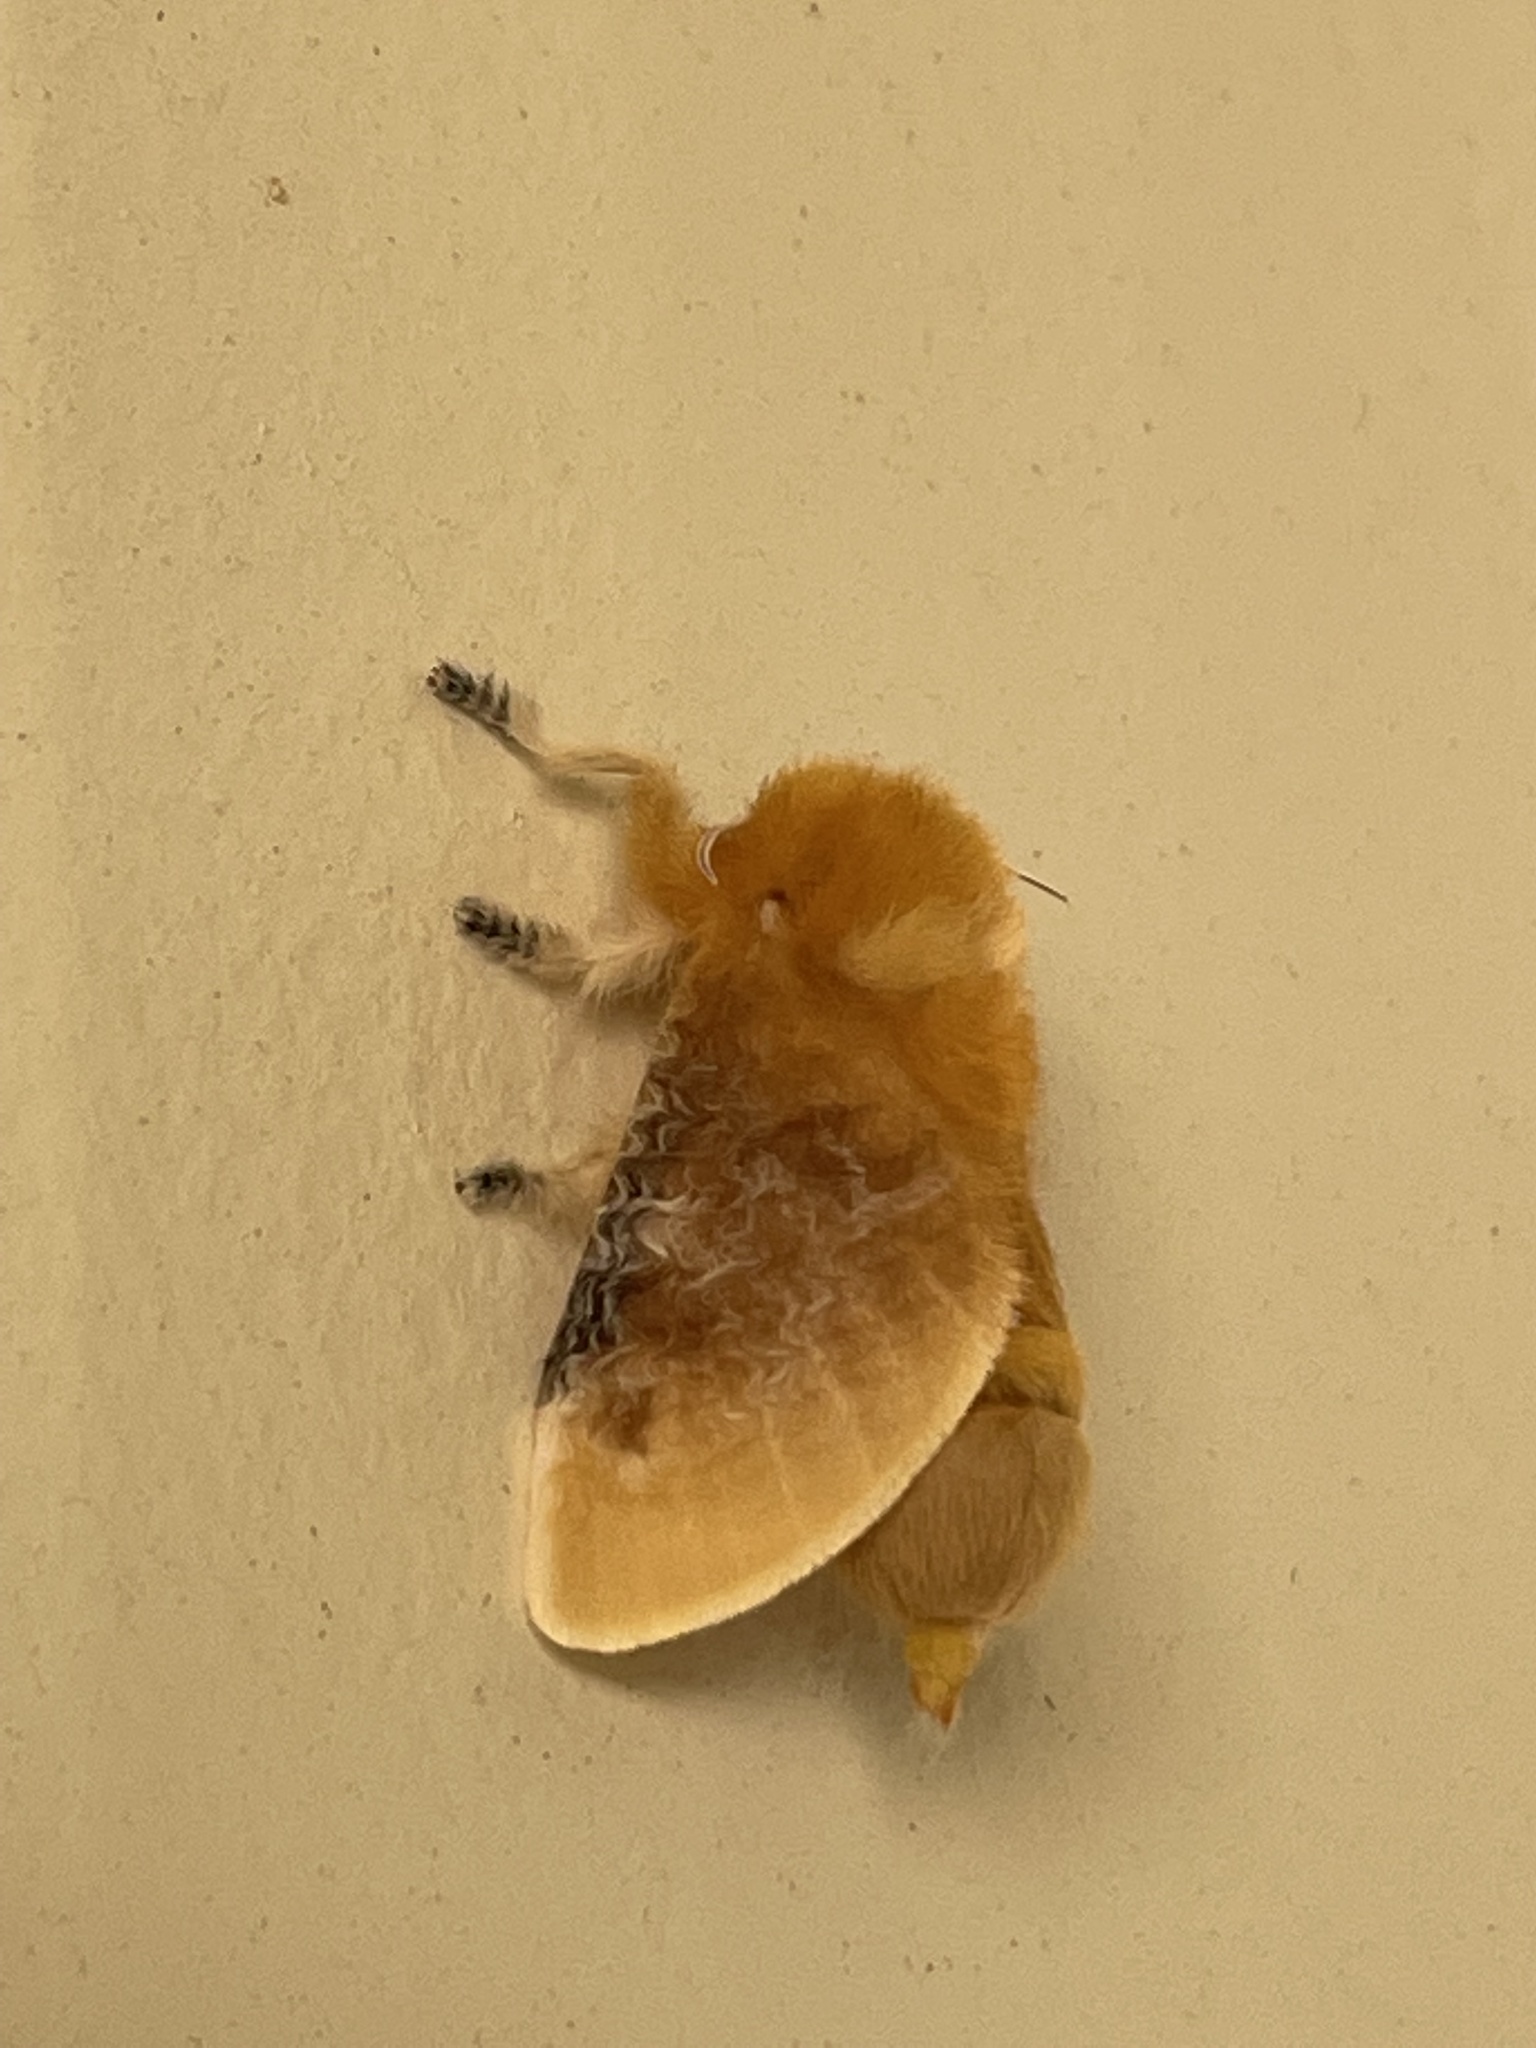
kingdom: Animalia
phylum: Arthropoda
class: Insecta
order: Lepidoptera
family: Megalopygidae
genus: Megalopyge
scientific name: Megalopyge opercularis
